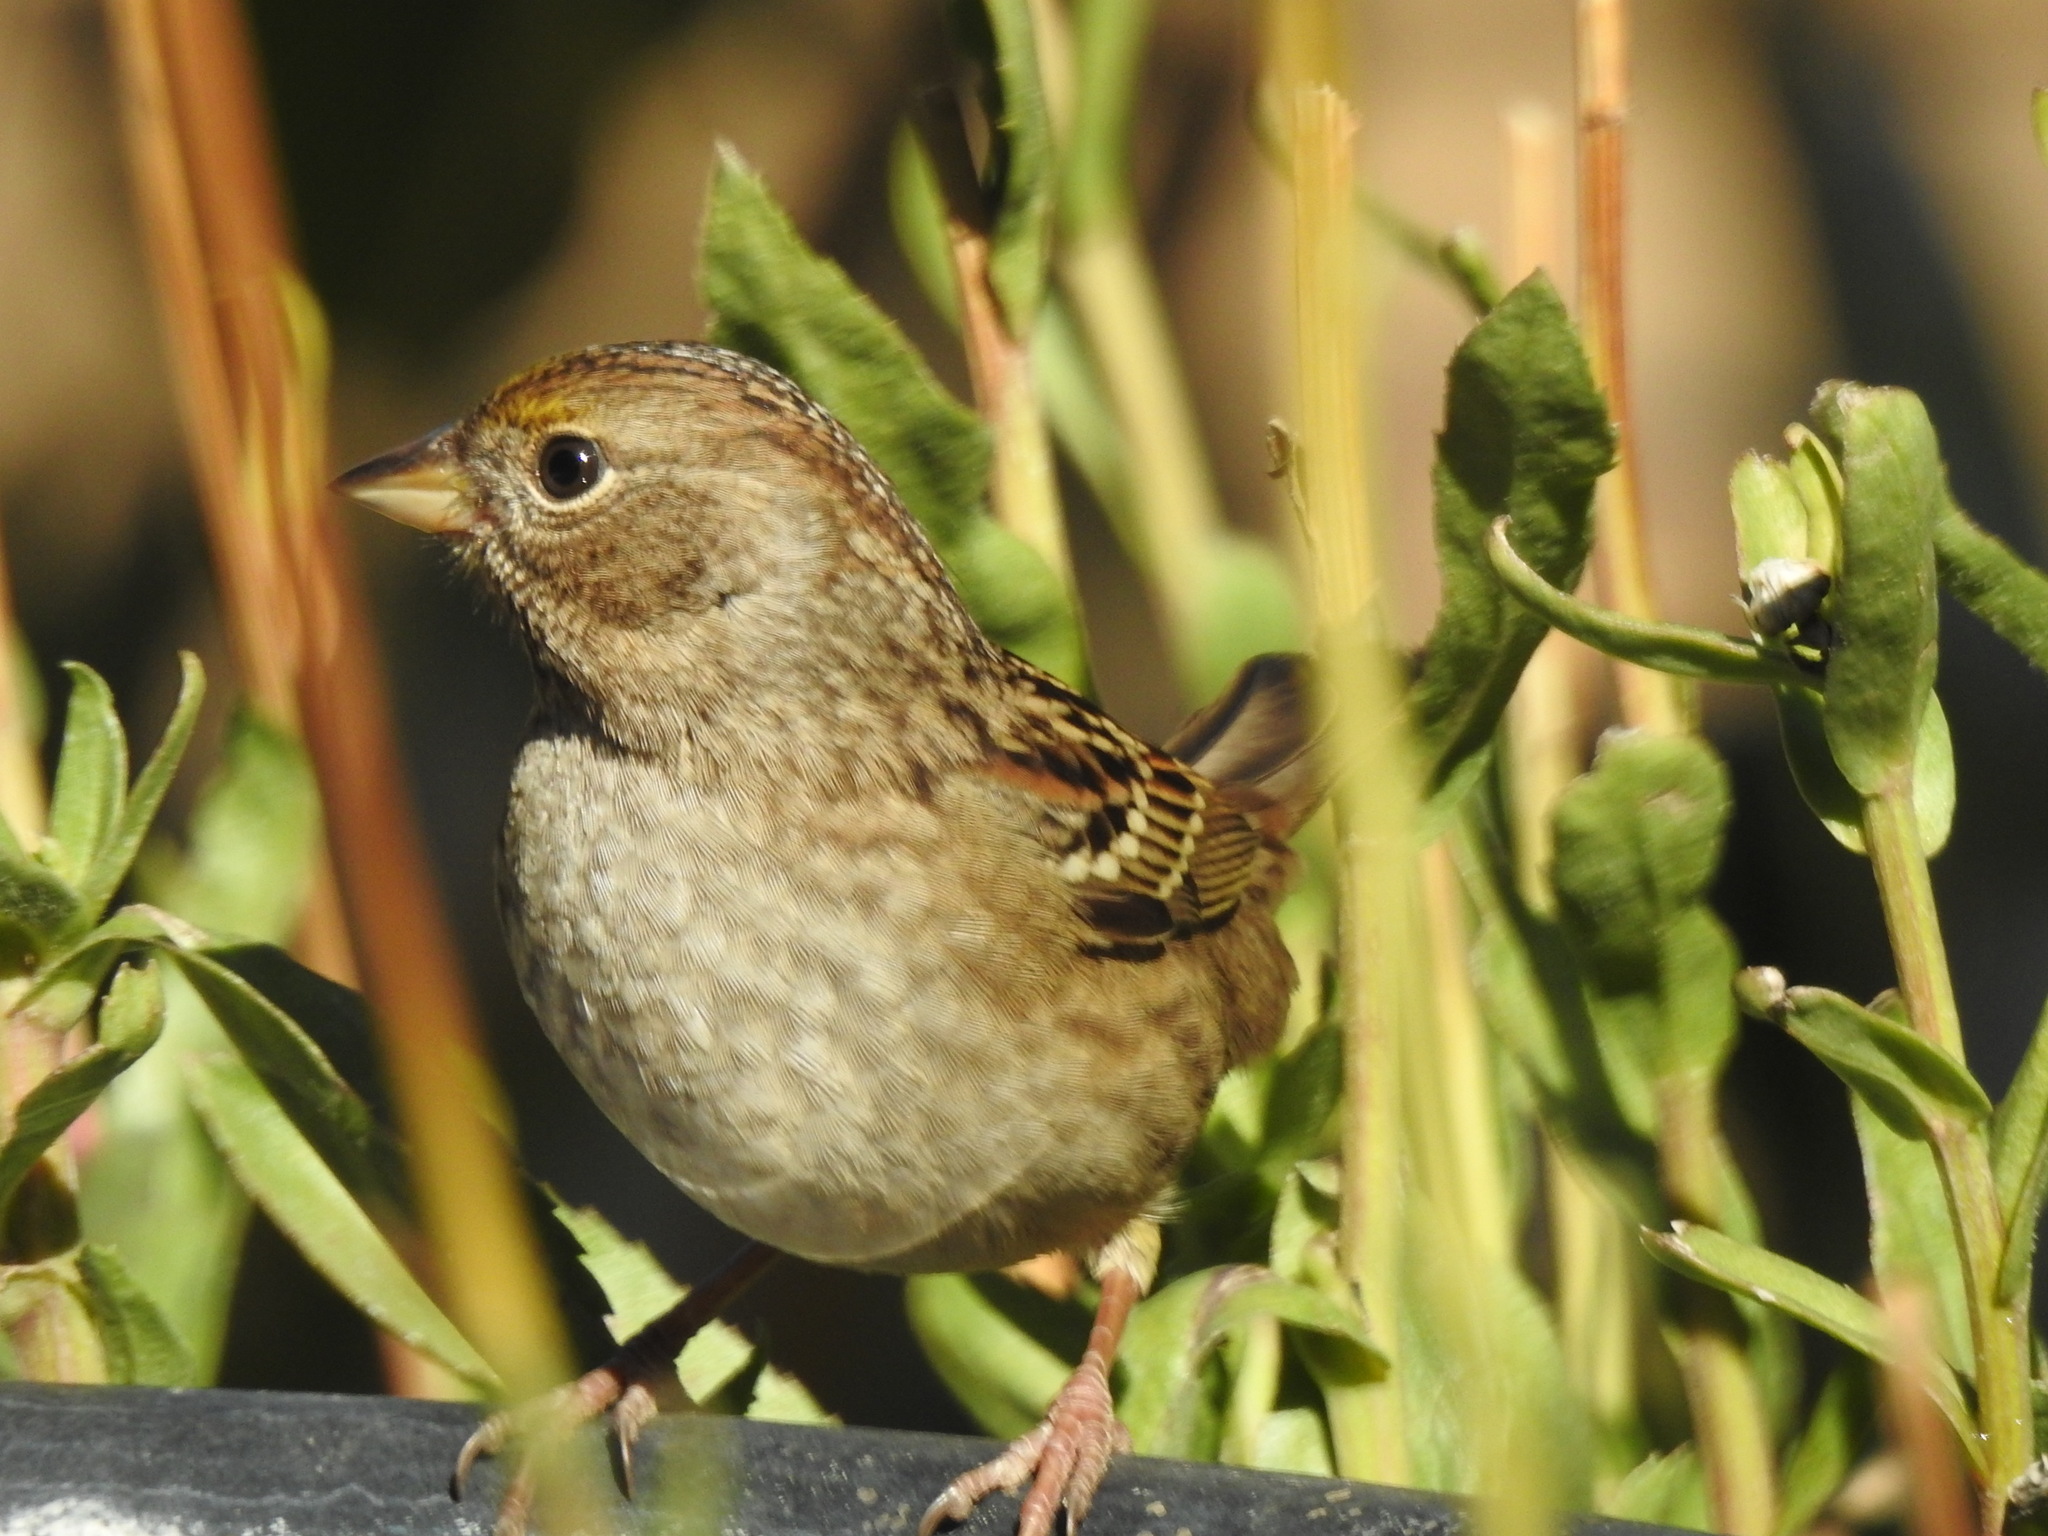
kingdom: Animalia
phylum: Chordata
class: Aves
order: Passeriformes
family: Passerellidae
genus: Zonotrichia
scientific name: Zonotrichia atricapilla
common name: Golden-crowned sparrow
